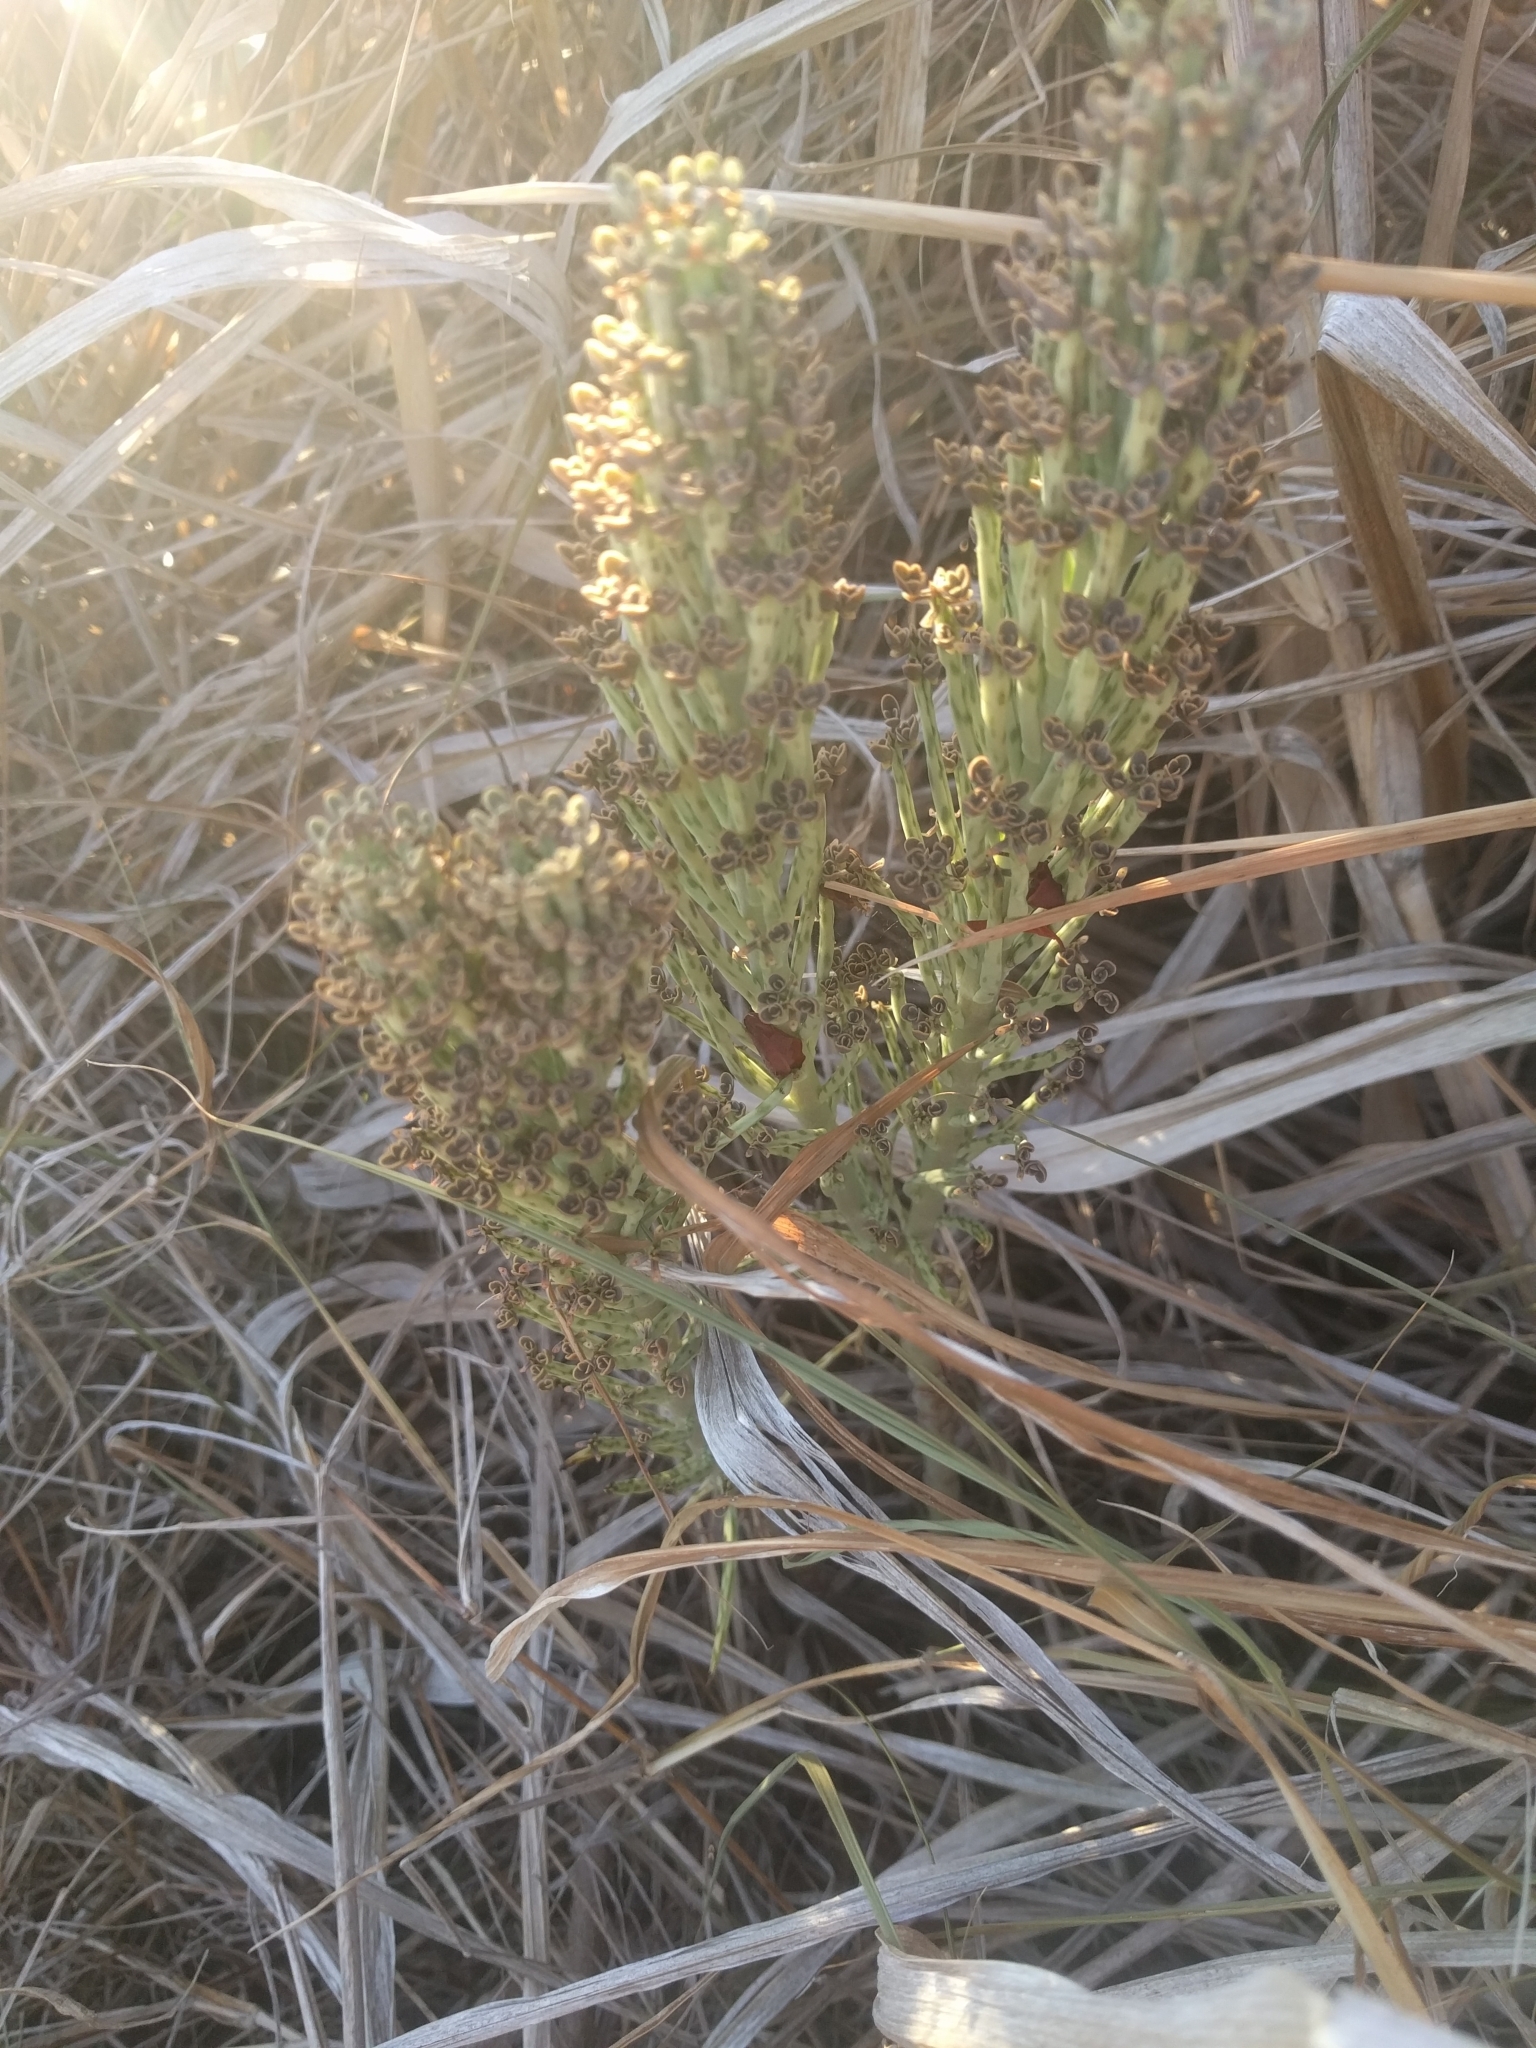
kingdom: Plantae
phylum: Tracheophyta
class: Magnoliopsida
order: Saxifragales
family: Crassulaceae
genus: Kalanchoe
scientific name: Kalanchoe delagoensis
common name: Chandelier plant
